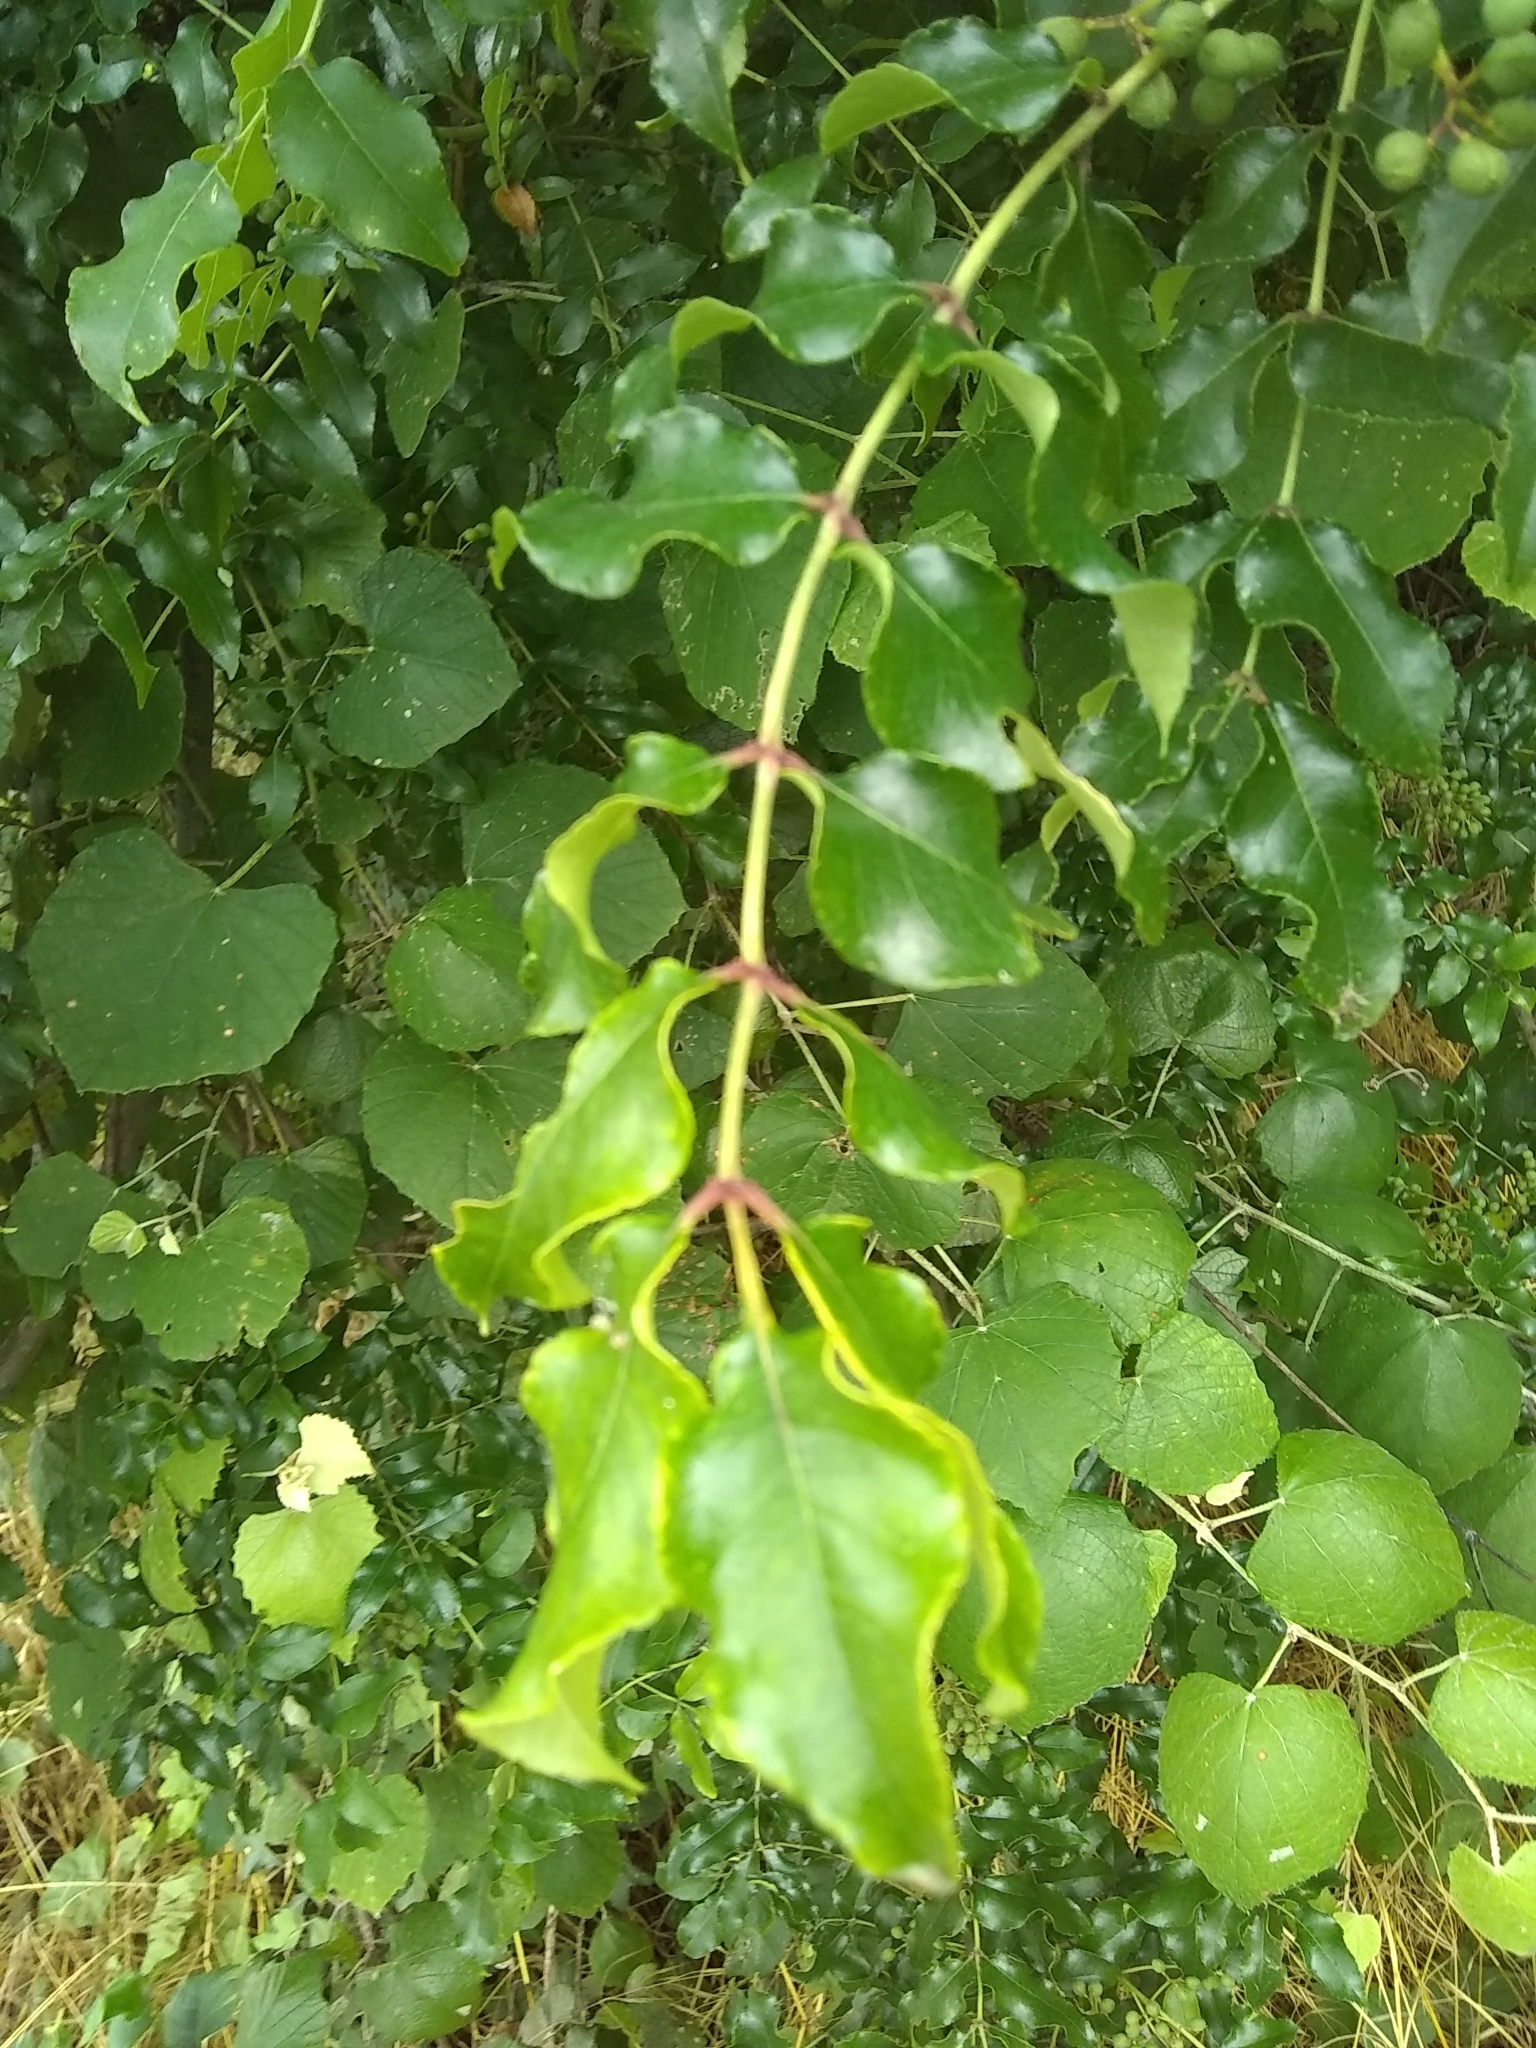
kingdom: Plantae
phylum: Tracheophyta
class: Magnoliopsida
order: Sapindales
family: Rutaceae
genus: Zanthoxylum
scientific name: Zanthoxylum clava-herculis
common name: Hercules'-club
